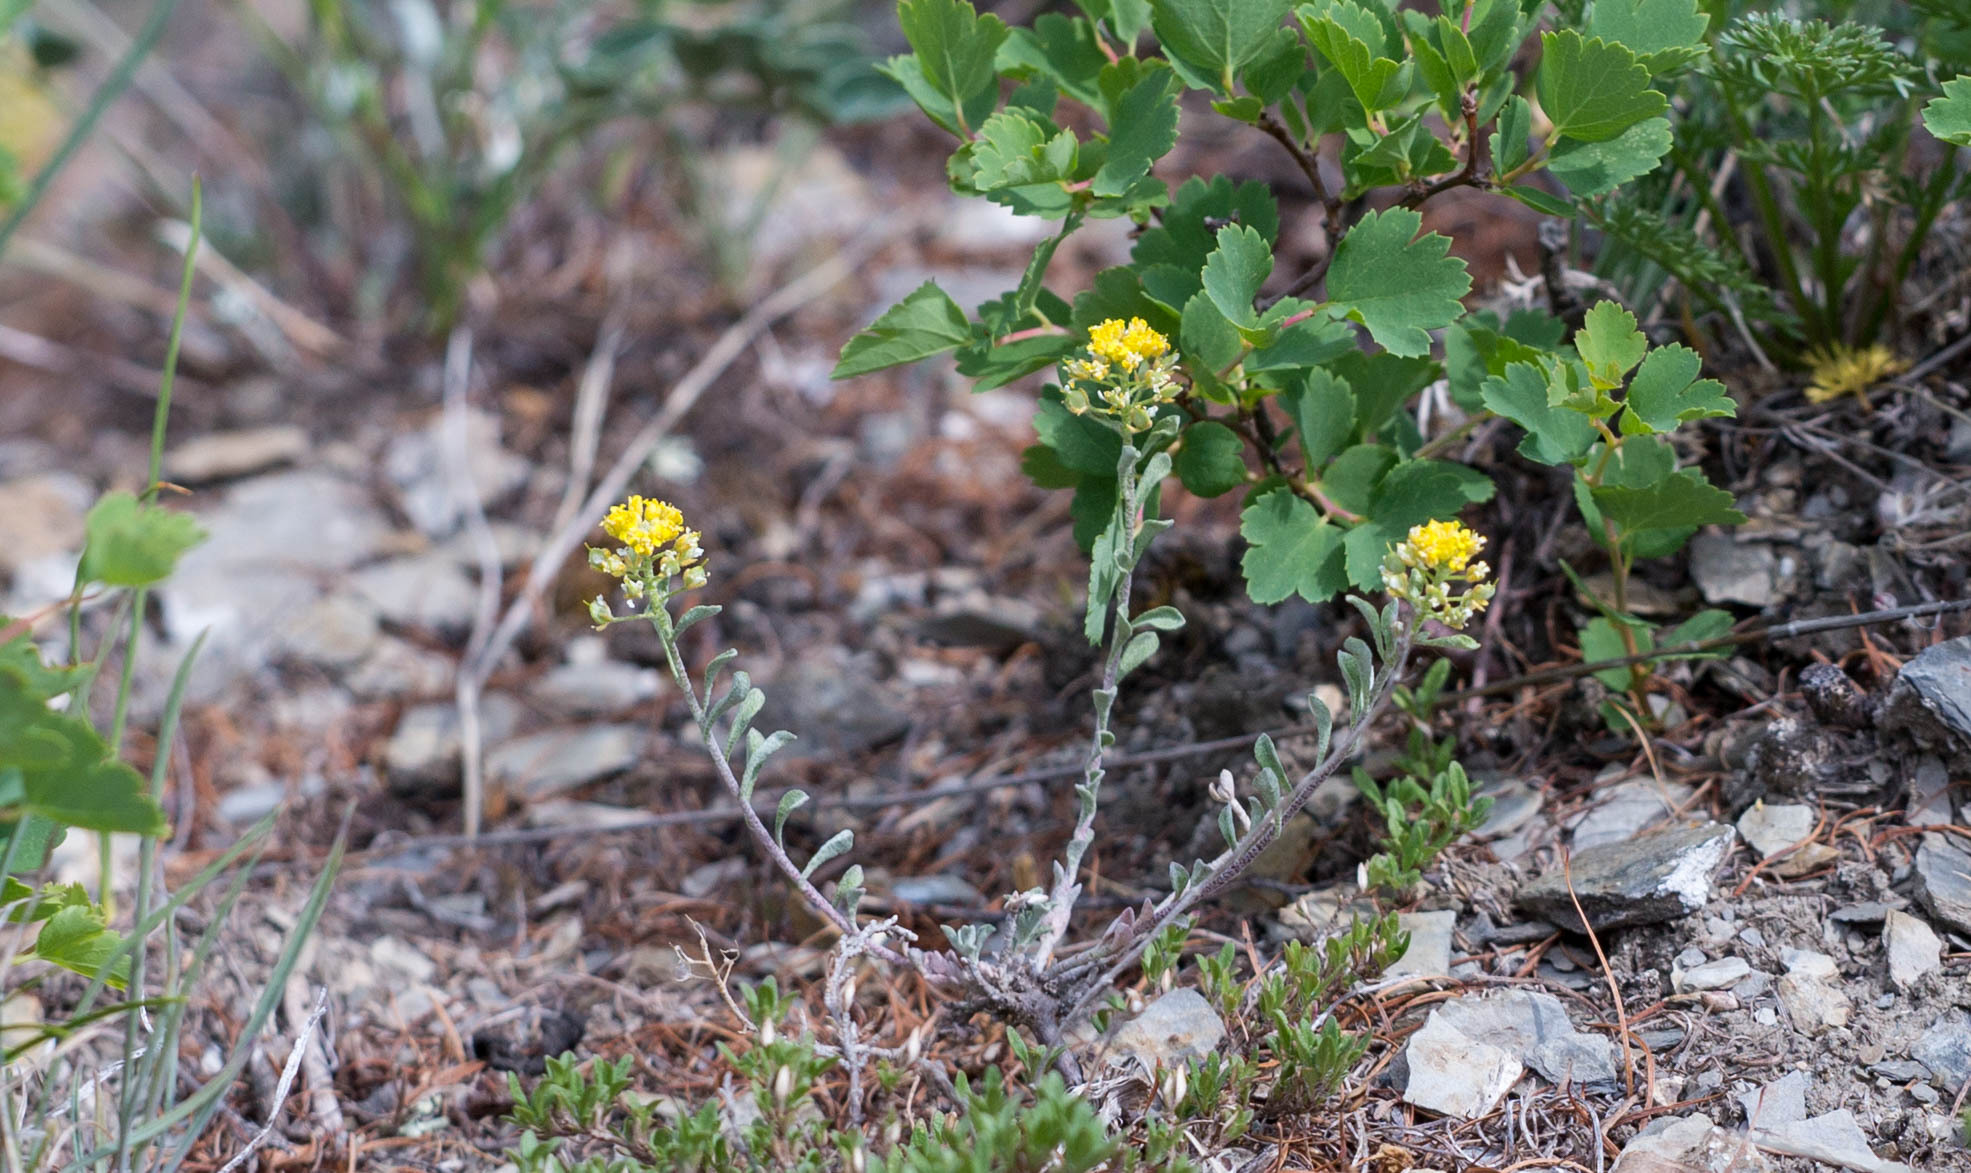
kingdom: Plantae
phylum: Tracheophyta
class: Magnoliopsida
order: Brassicales
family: Brassicaceae
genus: Odontarrhena
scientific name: Odontarrhena obovata
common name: American alyssum
